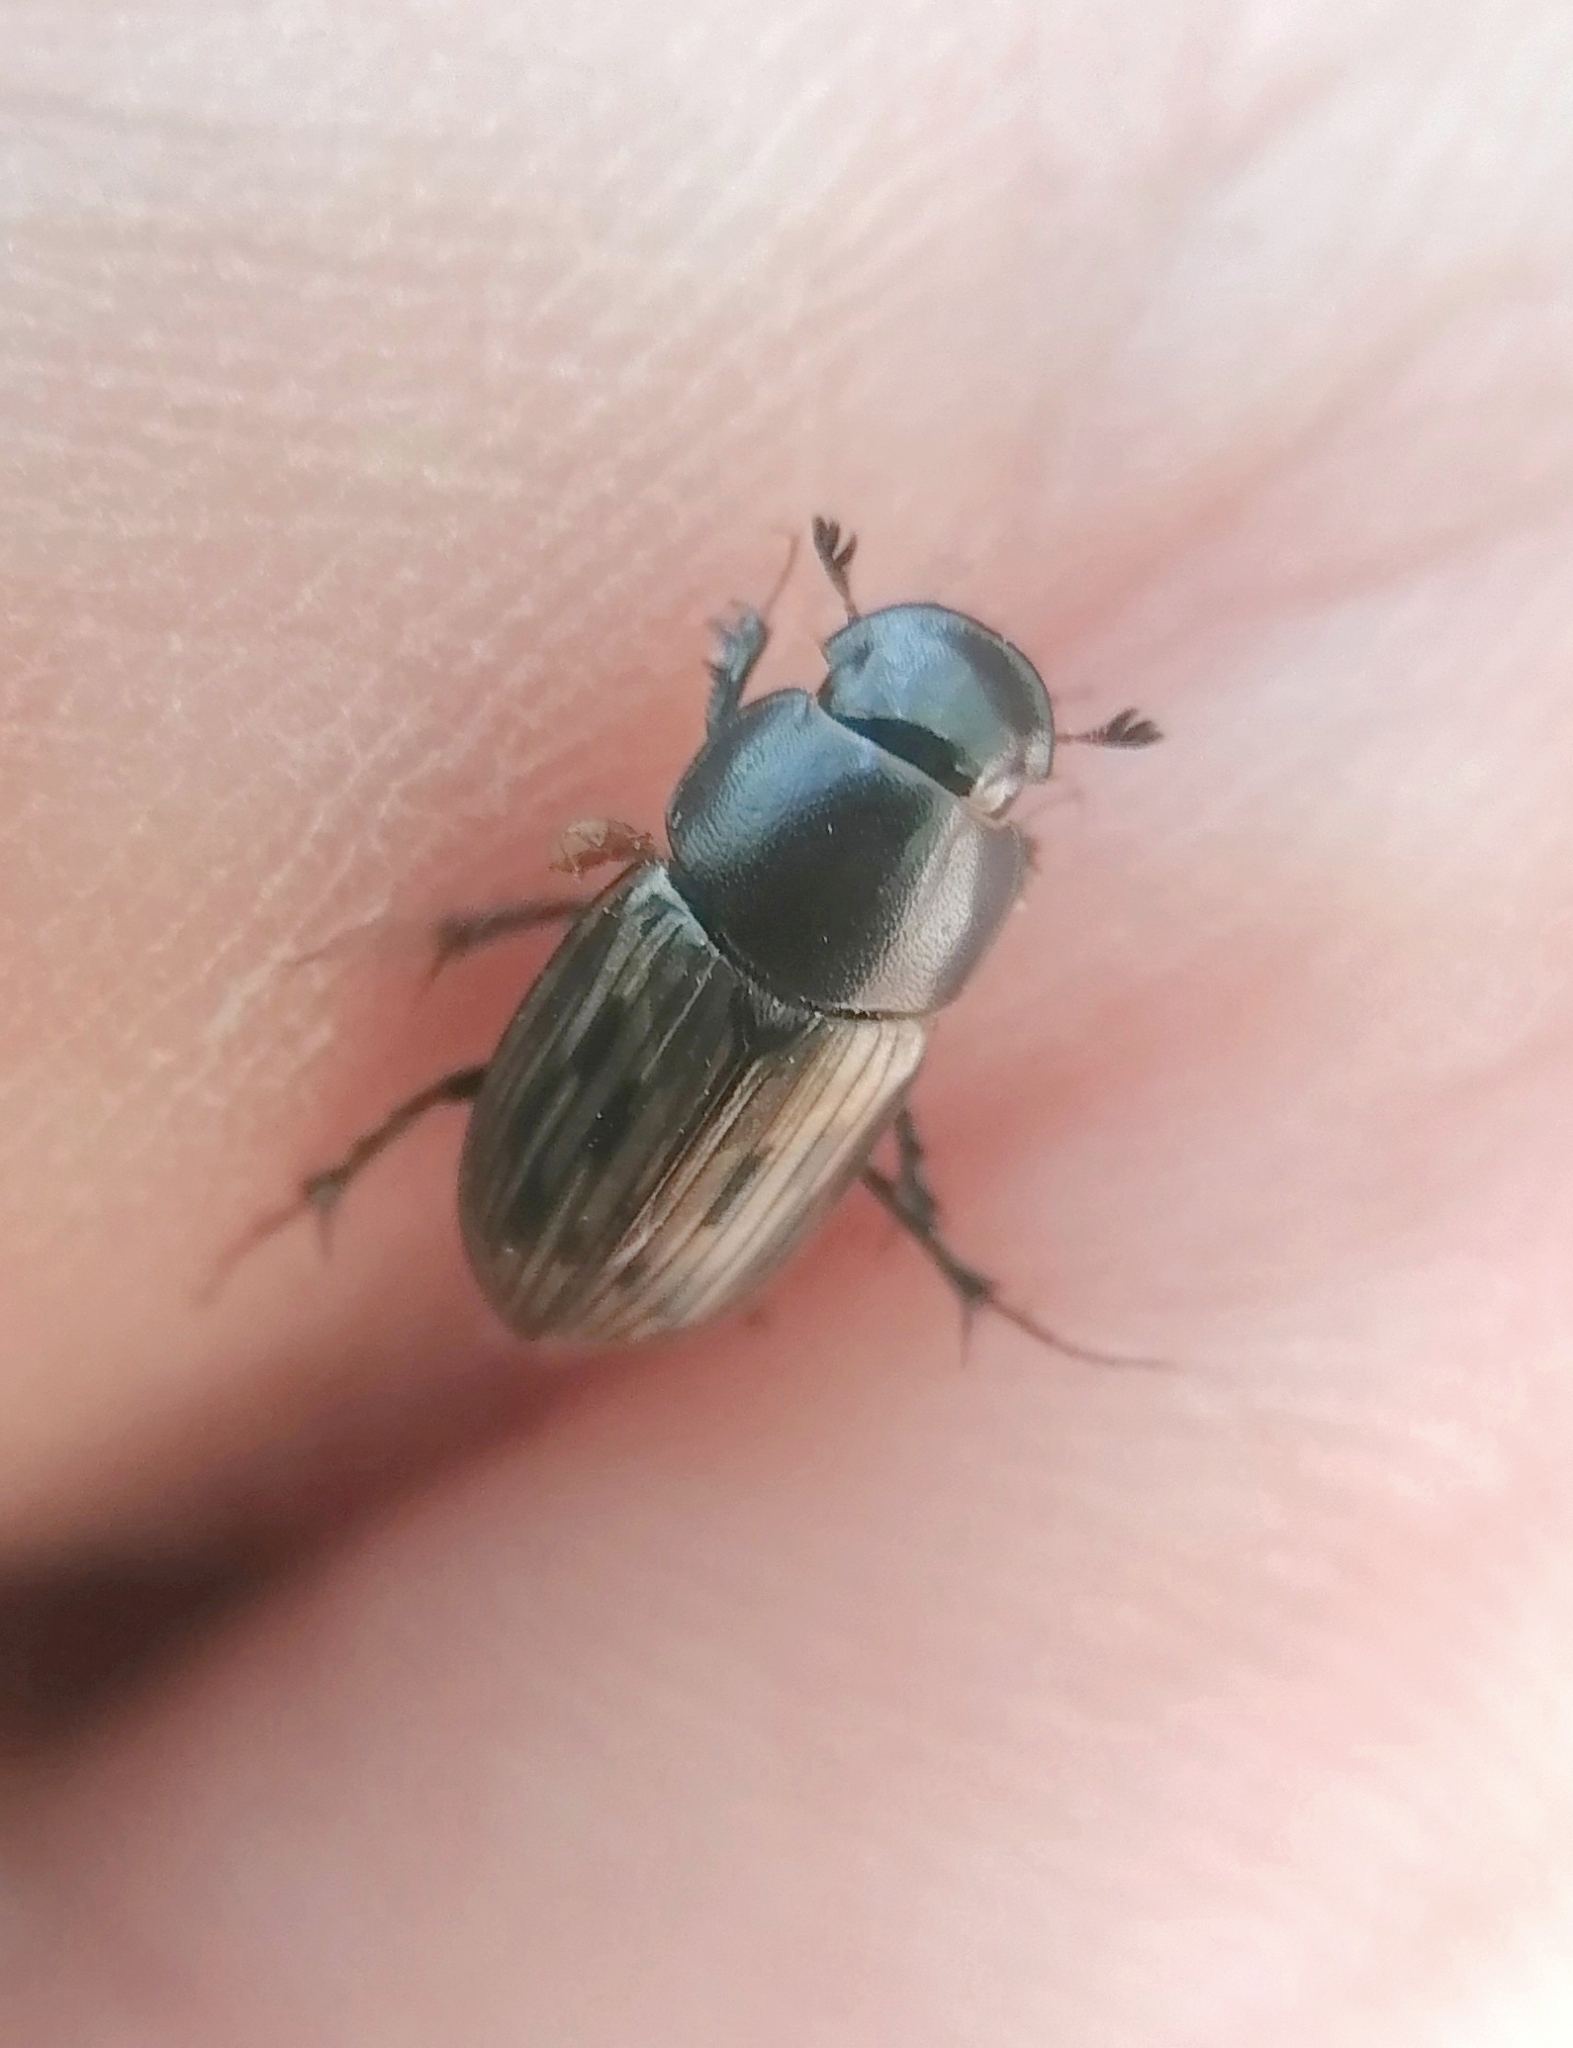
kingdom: Animalia
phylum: Arthropoda
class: Insecta
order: Coleoptera
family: Scarabaeidae
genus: Acrossus
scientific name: Acrossus luridus
